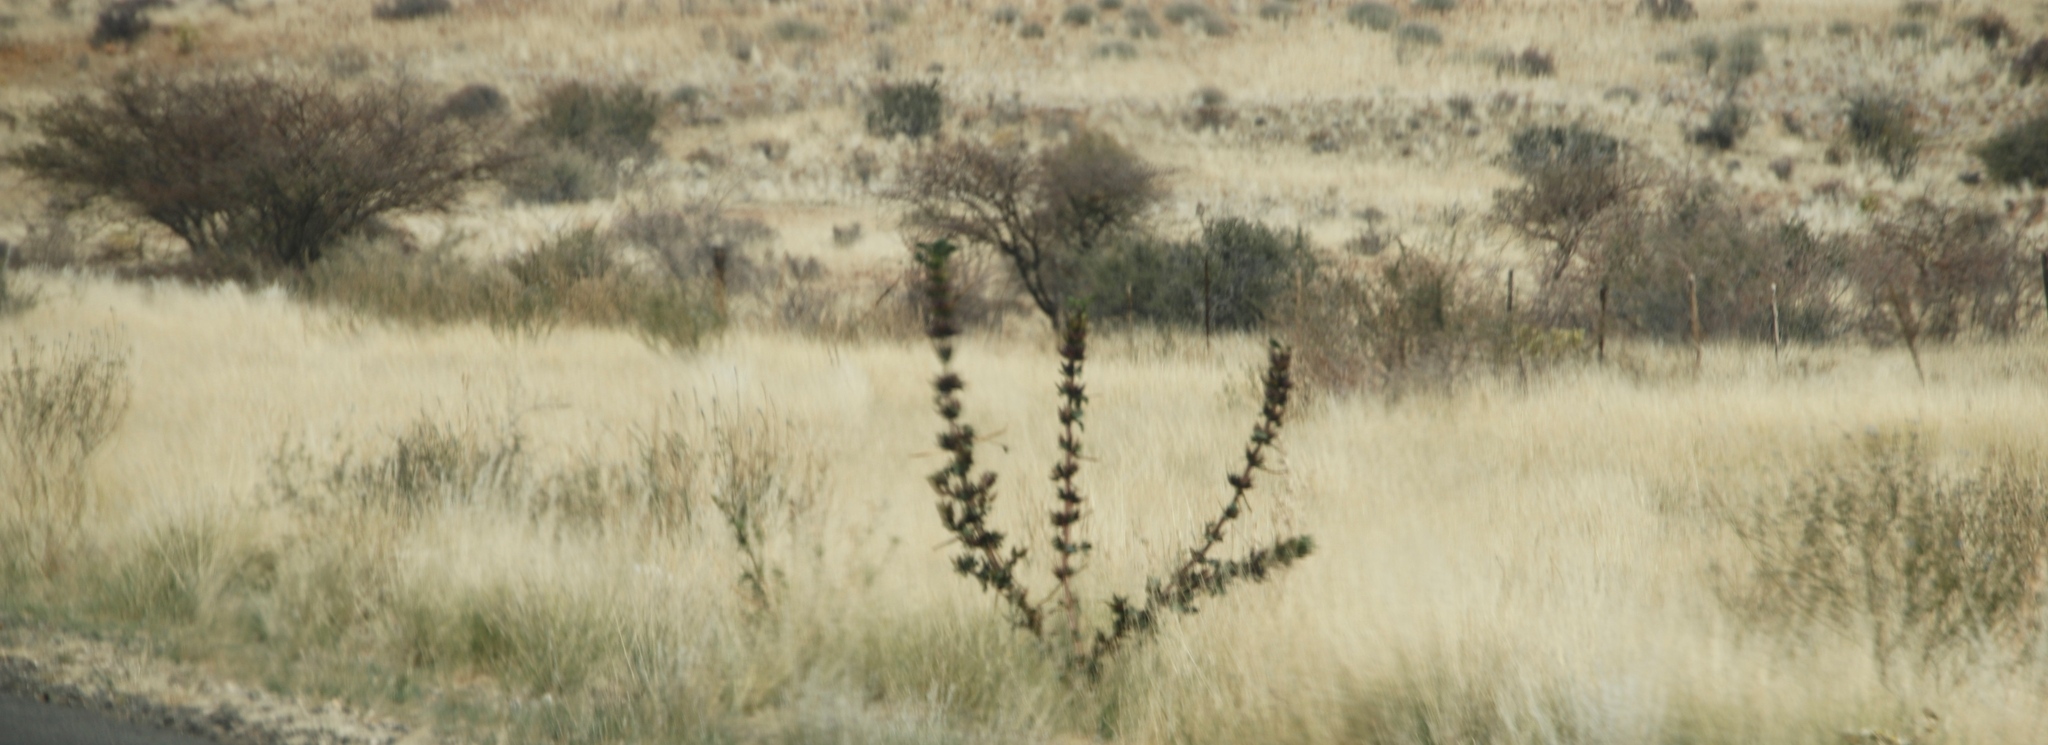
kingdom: Plantae
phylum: Tracheophyta
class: Magnoliopsida
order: Lamiales
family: Pedaliaceae
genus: Rogeria
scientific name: Rogeria longiflora
